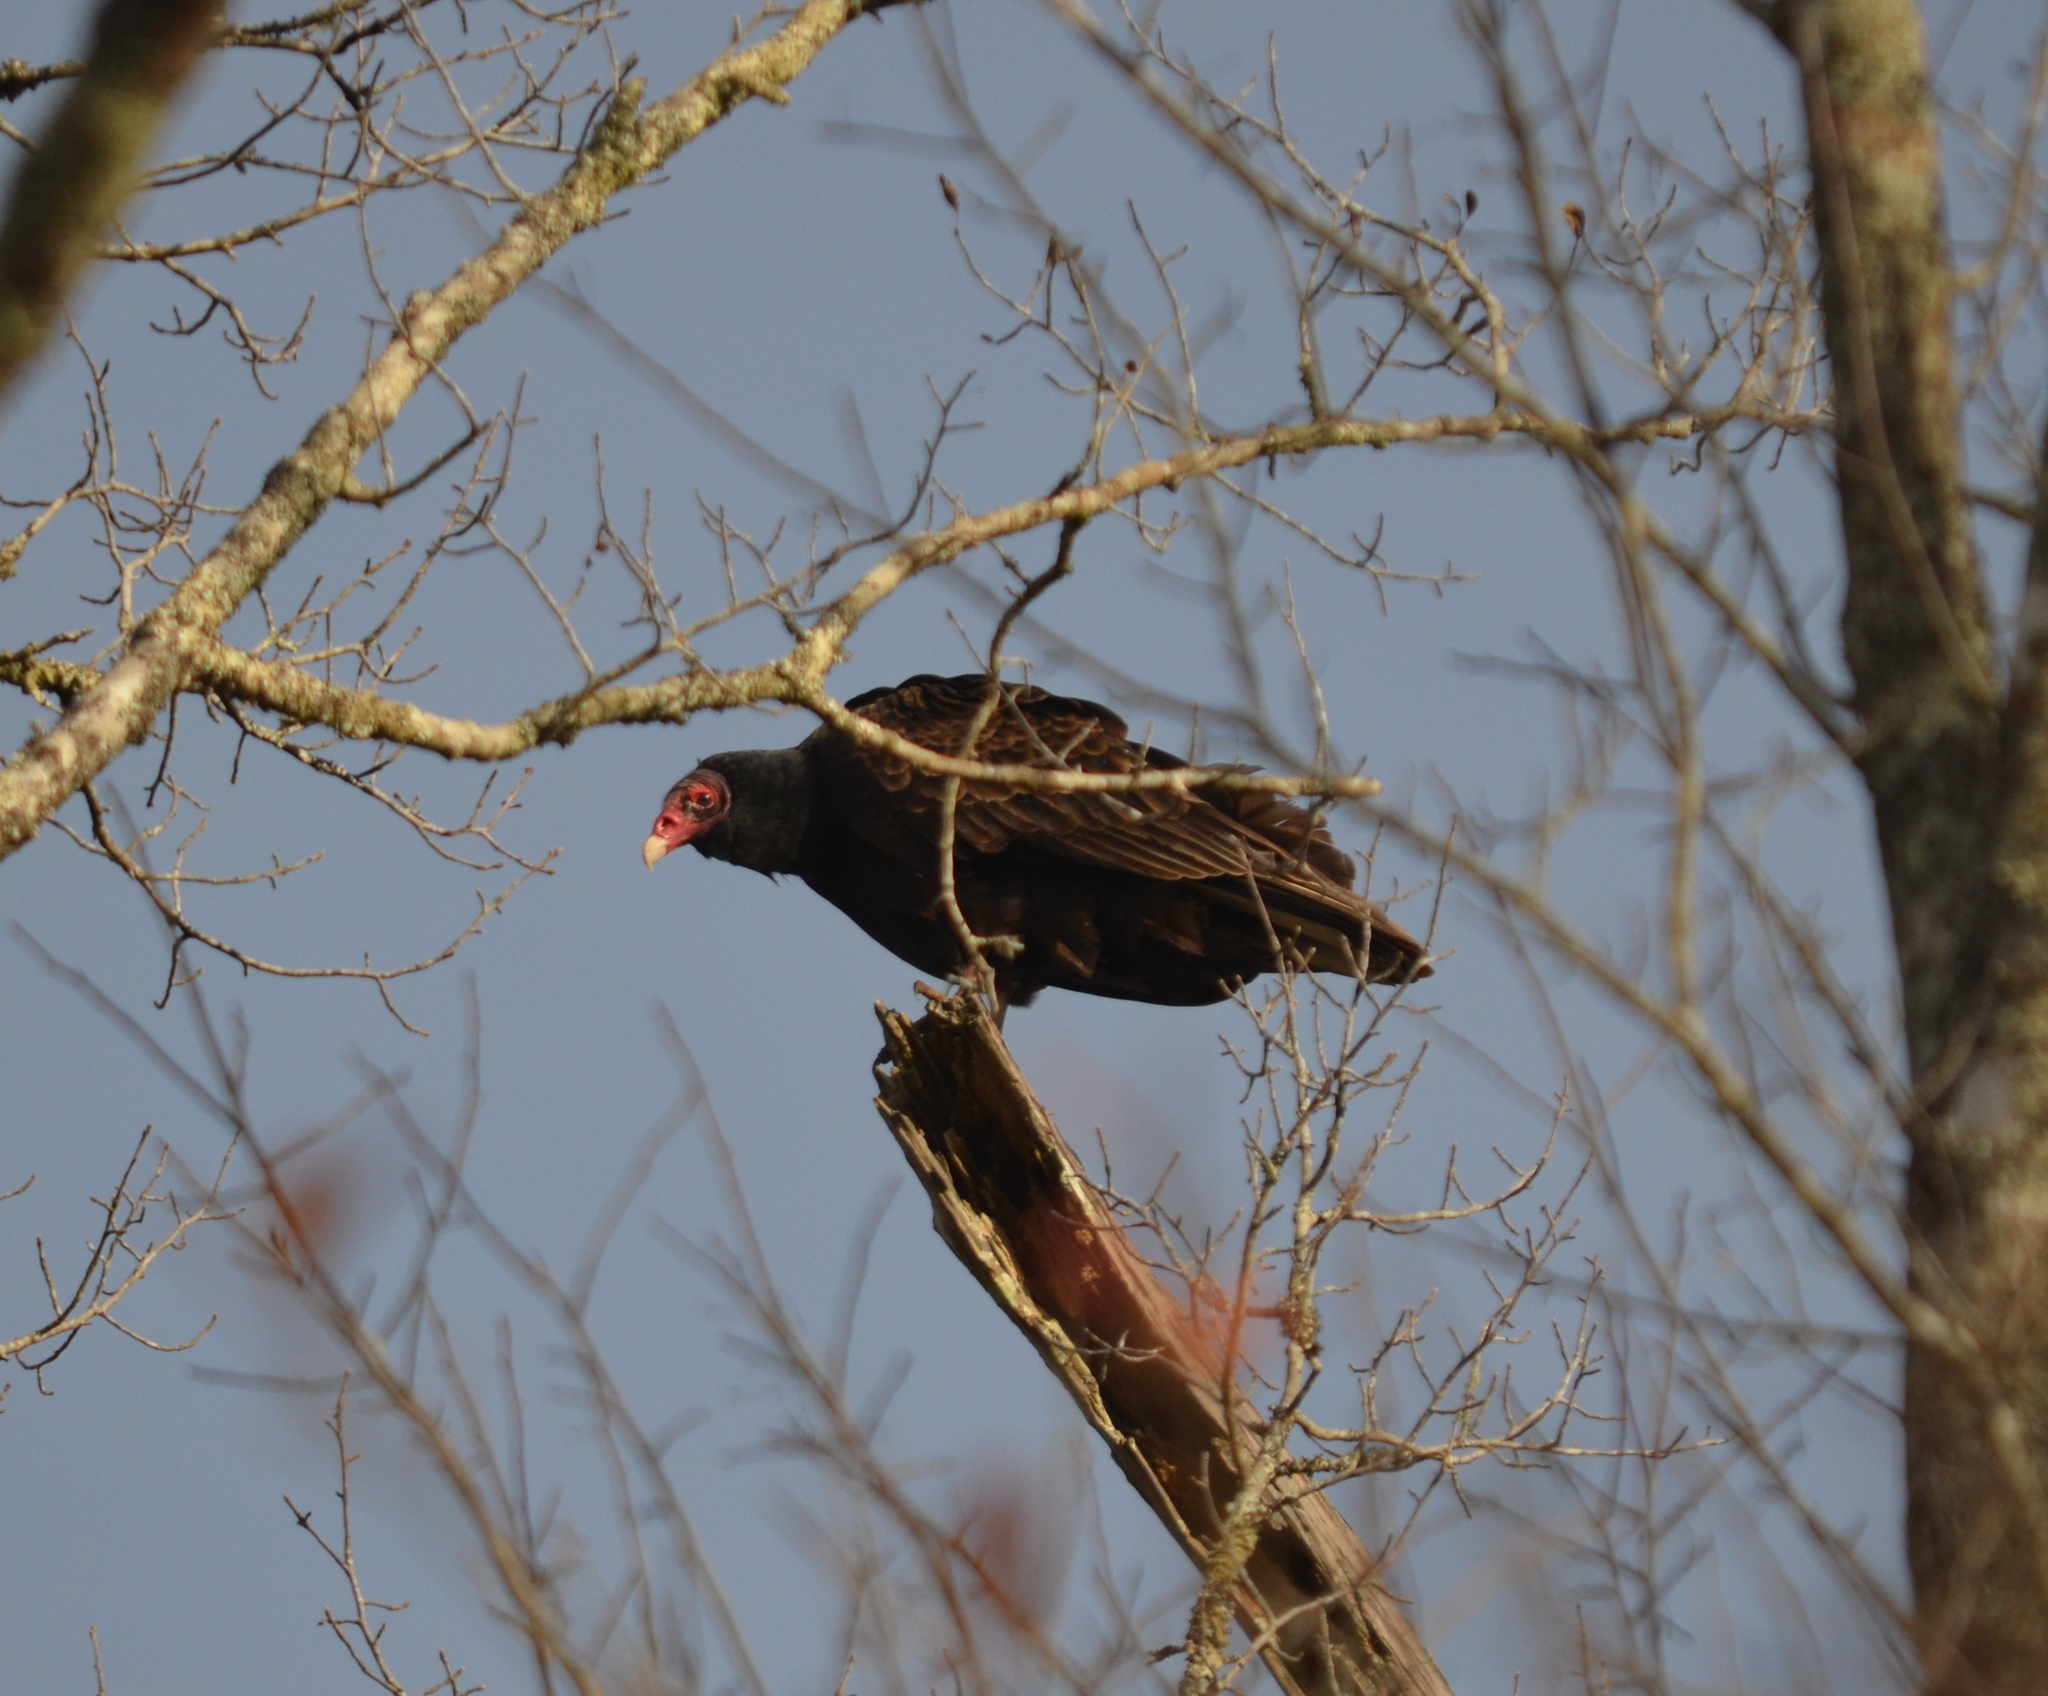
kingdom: Animalia
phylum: Chordata
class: Aves
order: Accipitriformes
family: Cathartidae
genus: Cathartes
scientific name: Cathartes aura
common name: Turkey vulture
